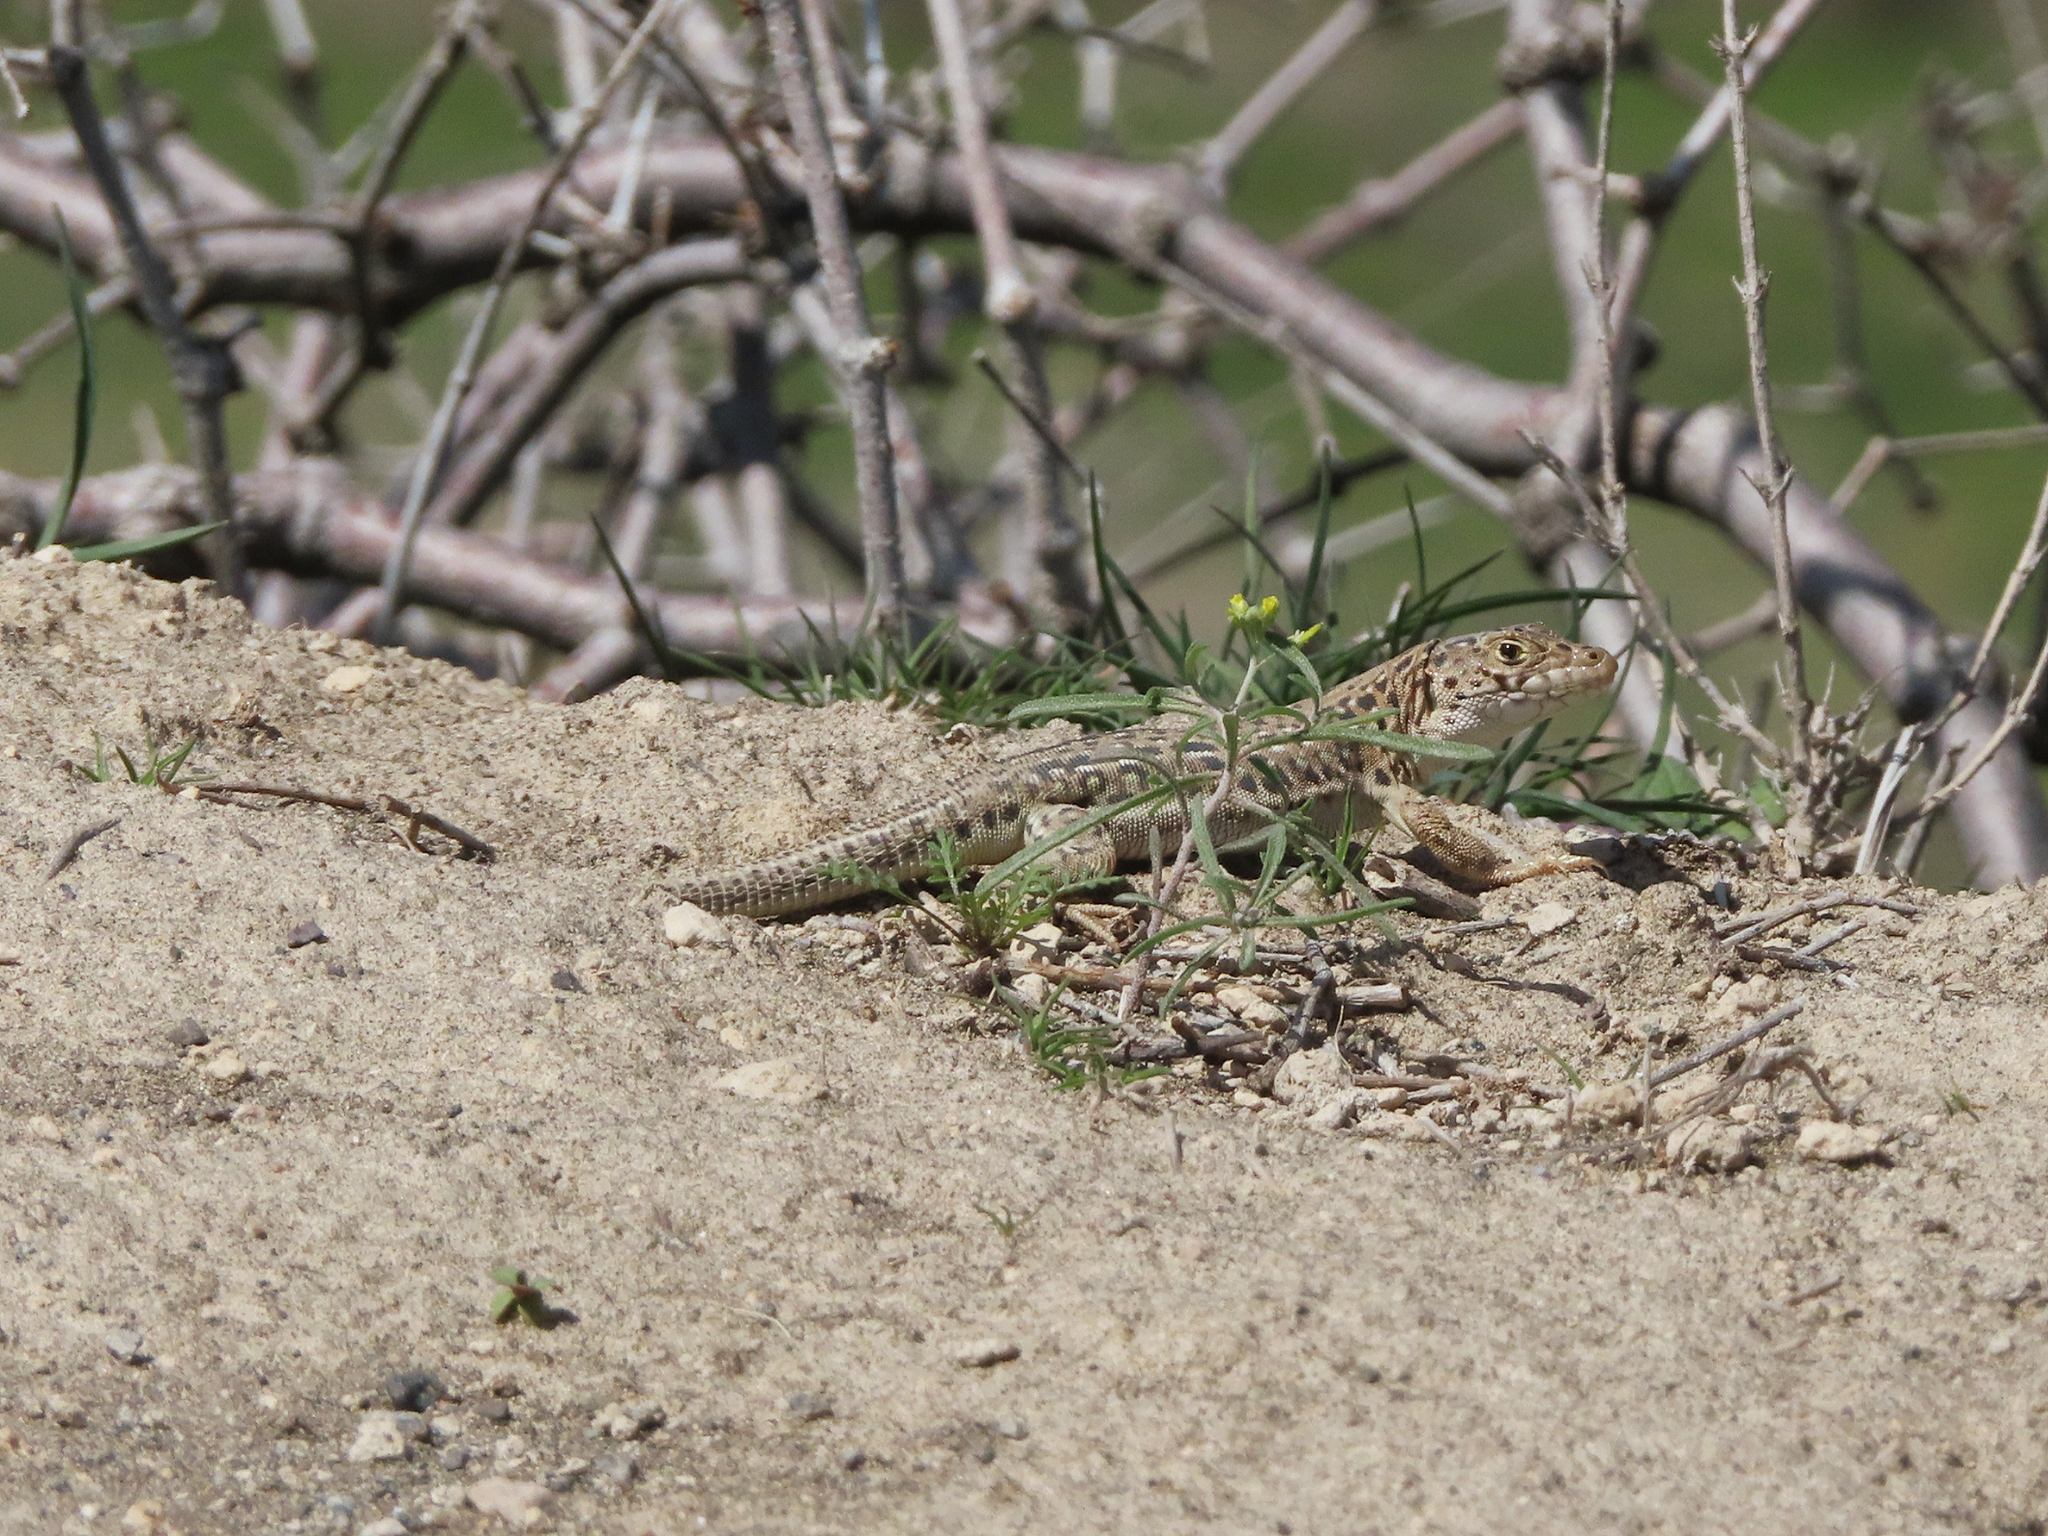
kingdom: Animalia
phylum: Chordata
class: Squamata
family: Lacertidae
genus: Eremias
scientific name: Eremias strauchi
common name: Strauch's racerunner
